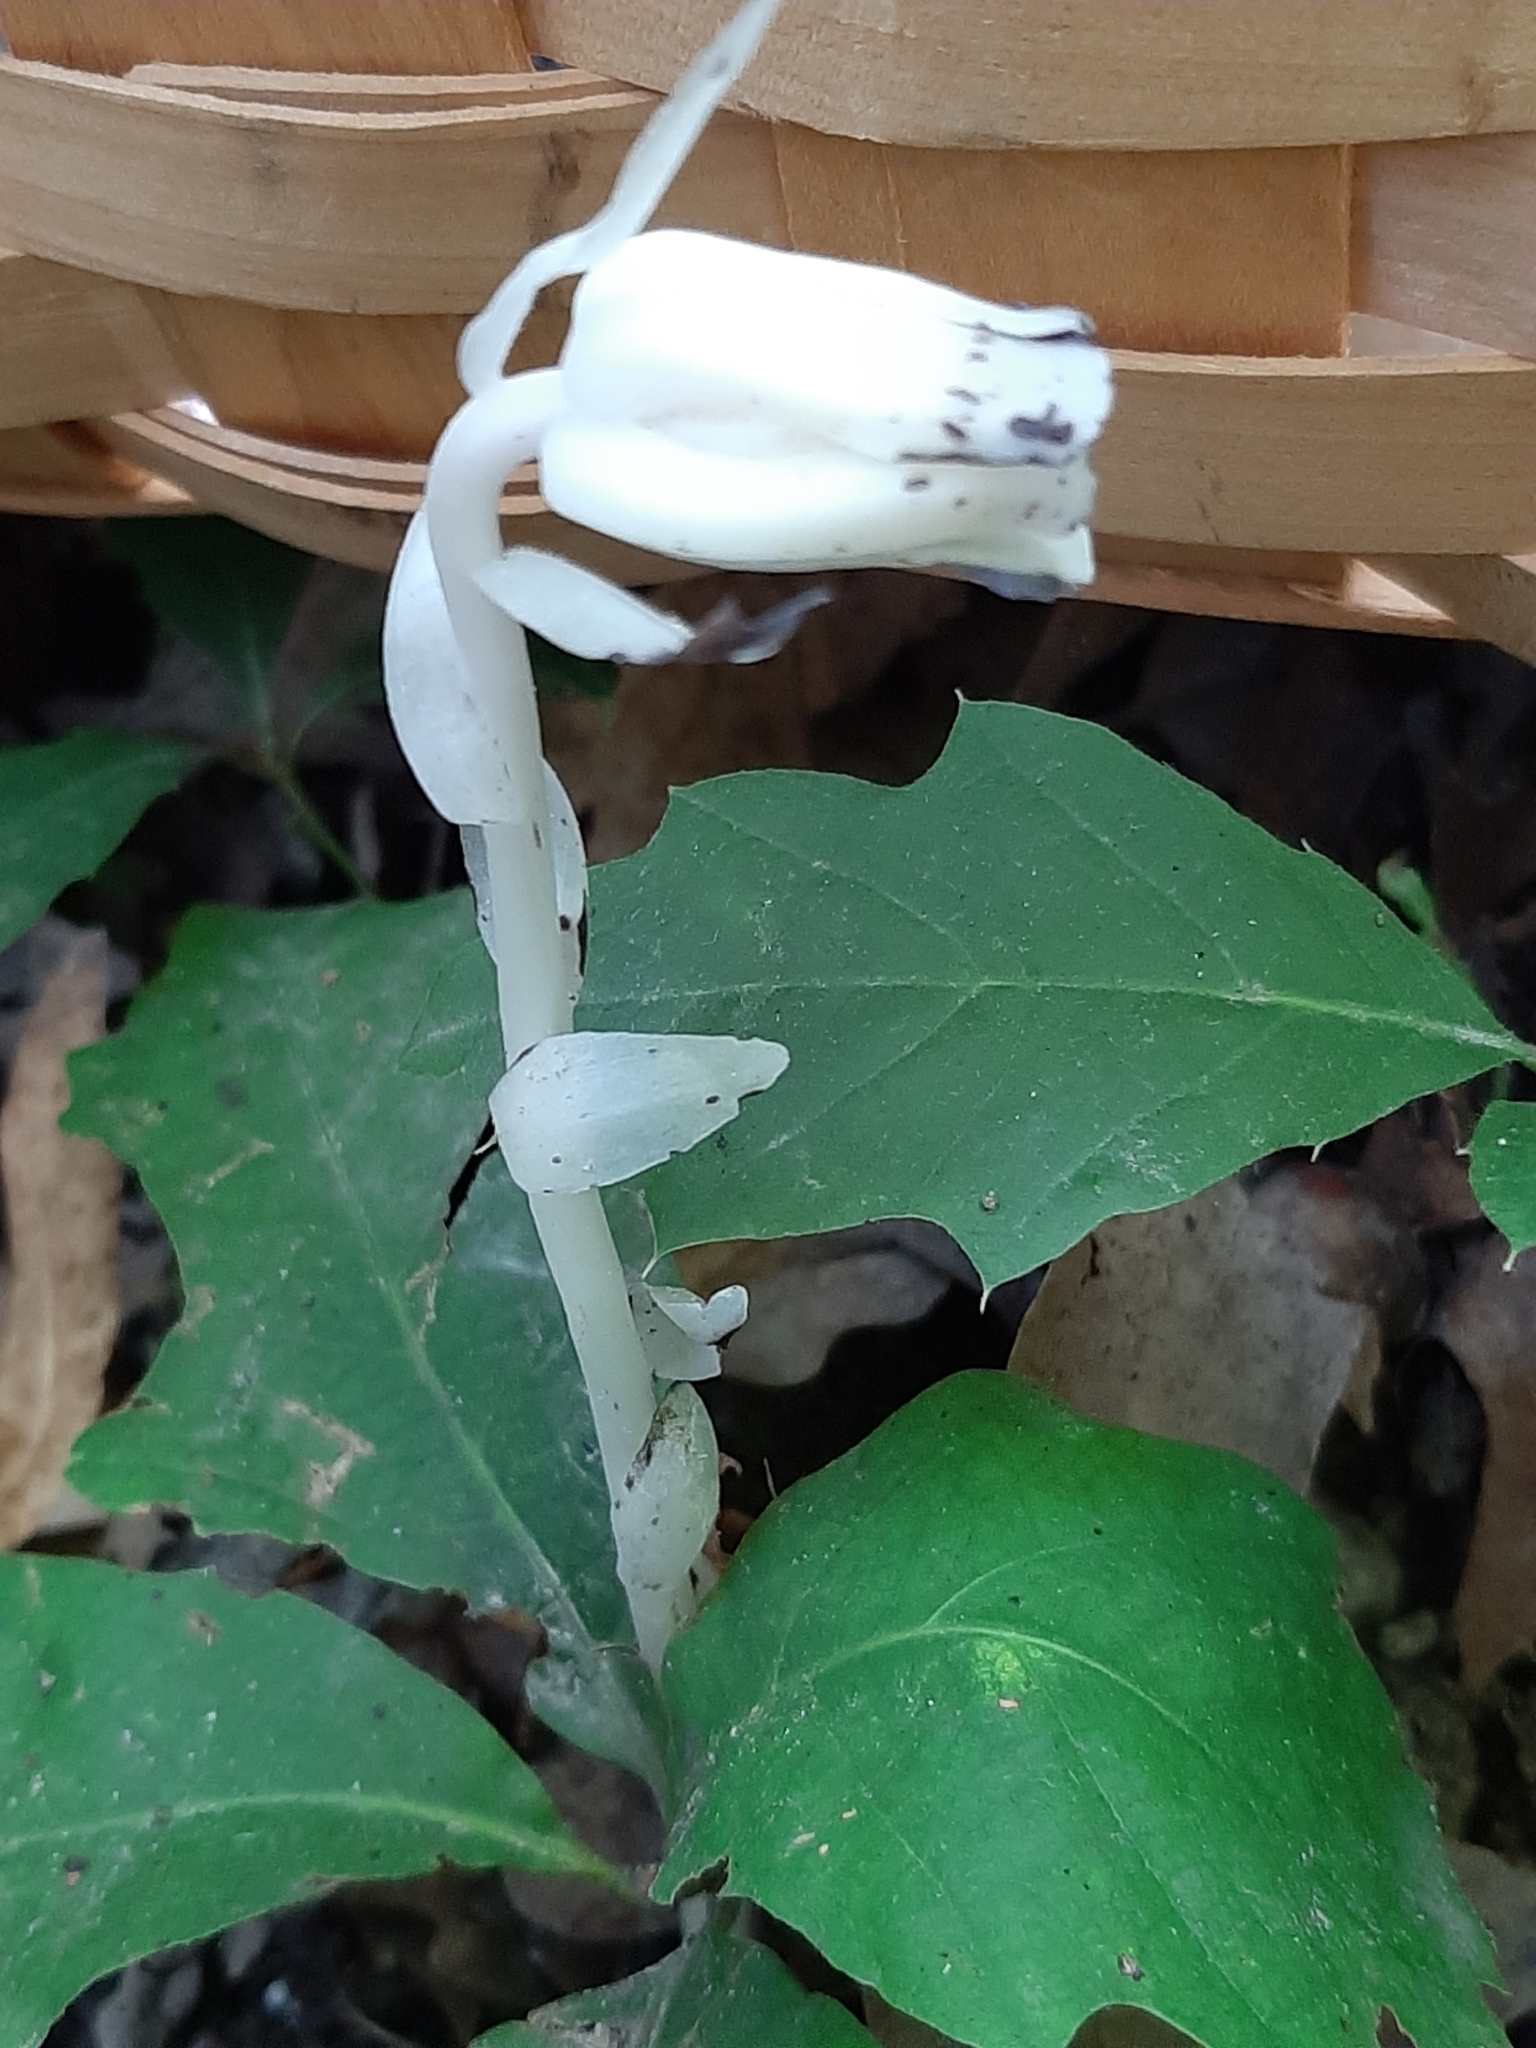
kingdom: Plantae
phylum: Tracheophyta
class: Magnoliopsida
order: Ericales
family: Ericaceae
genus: Monotropa
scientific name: Monotropa uniflora
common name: Convulsion root
